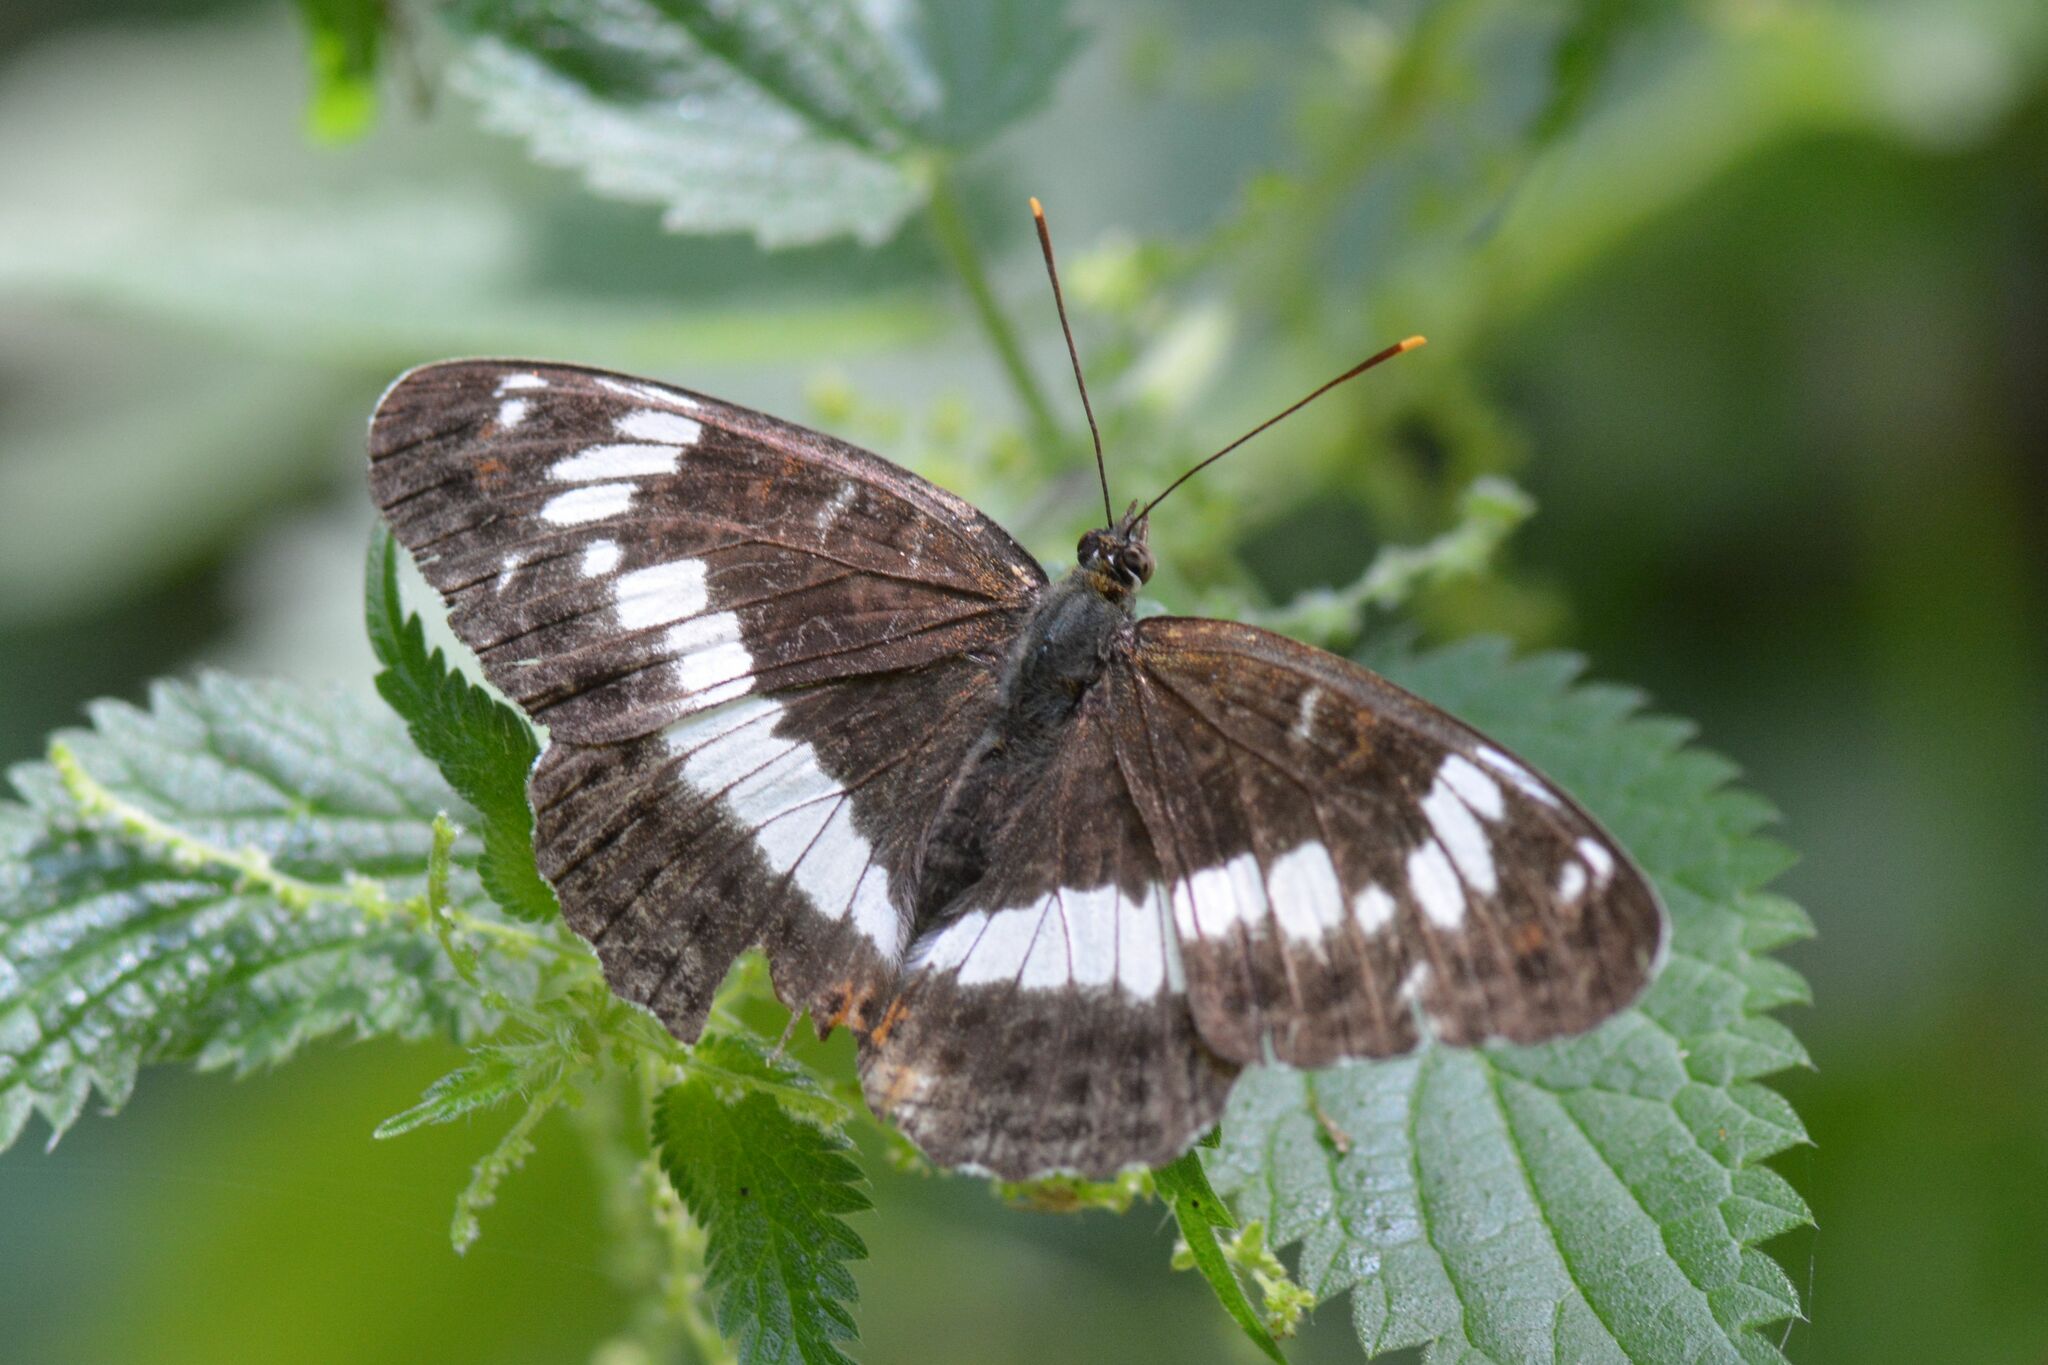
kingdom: Animalia
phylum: Arthropoda
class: Insecta
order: Lepidoptera
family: Nymphalidae
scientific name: Nymphalidae
